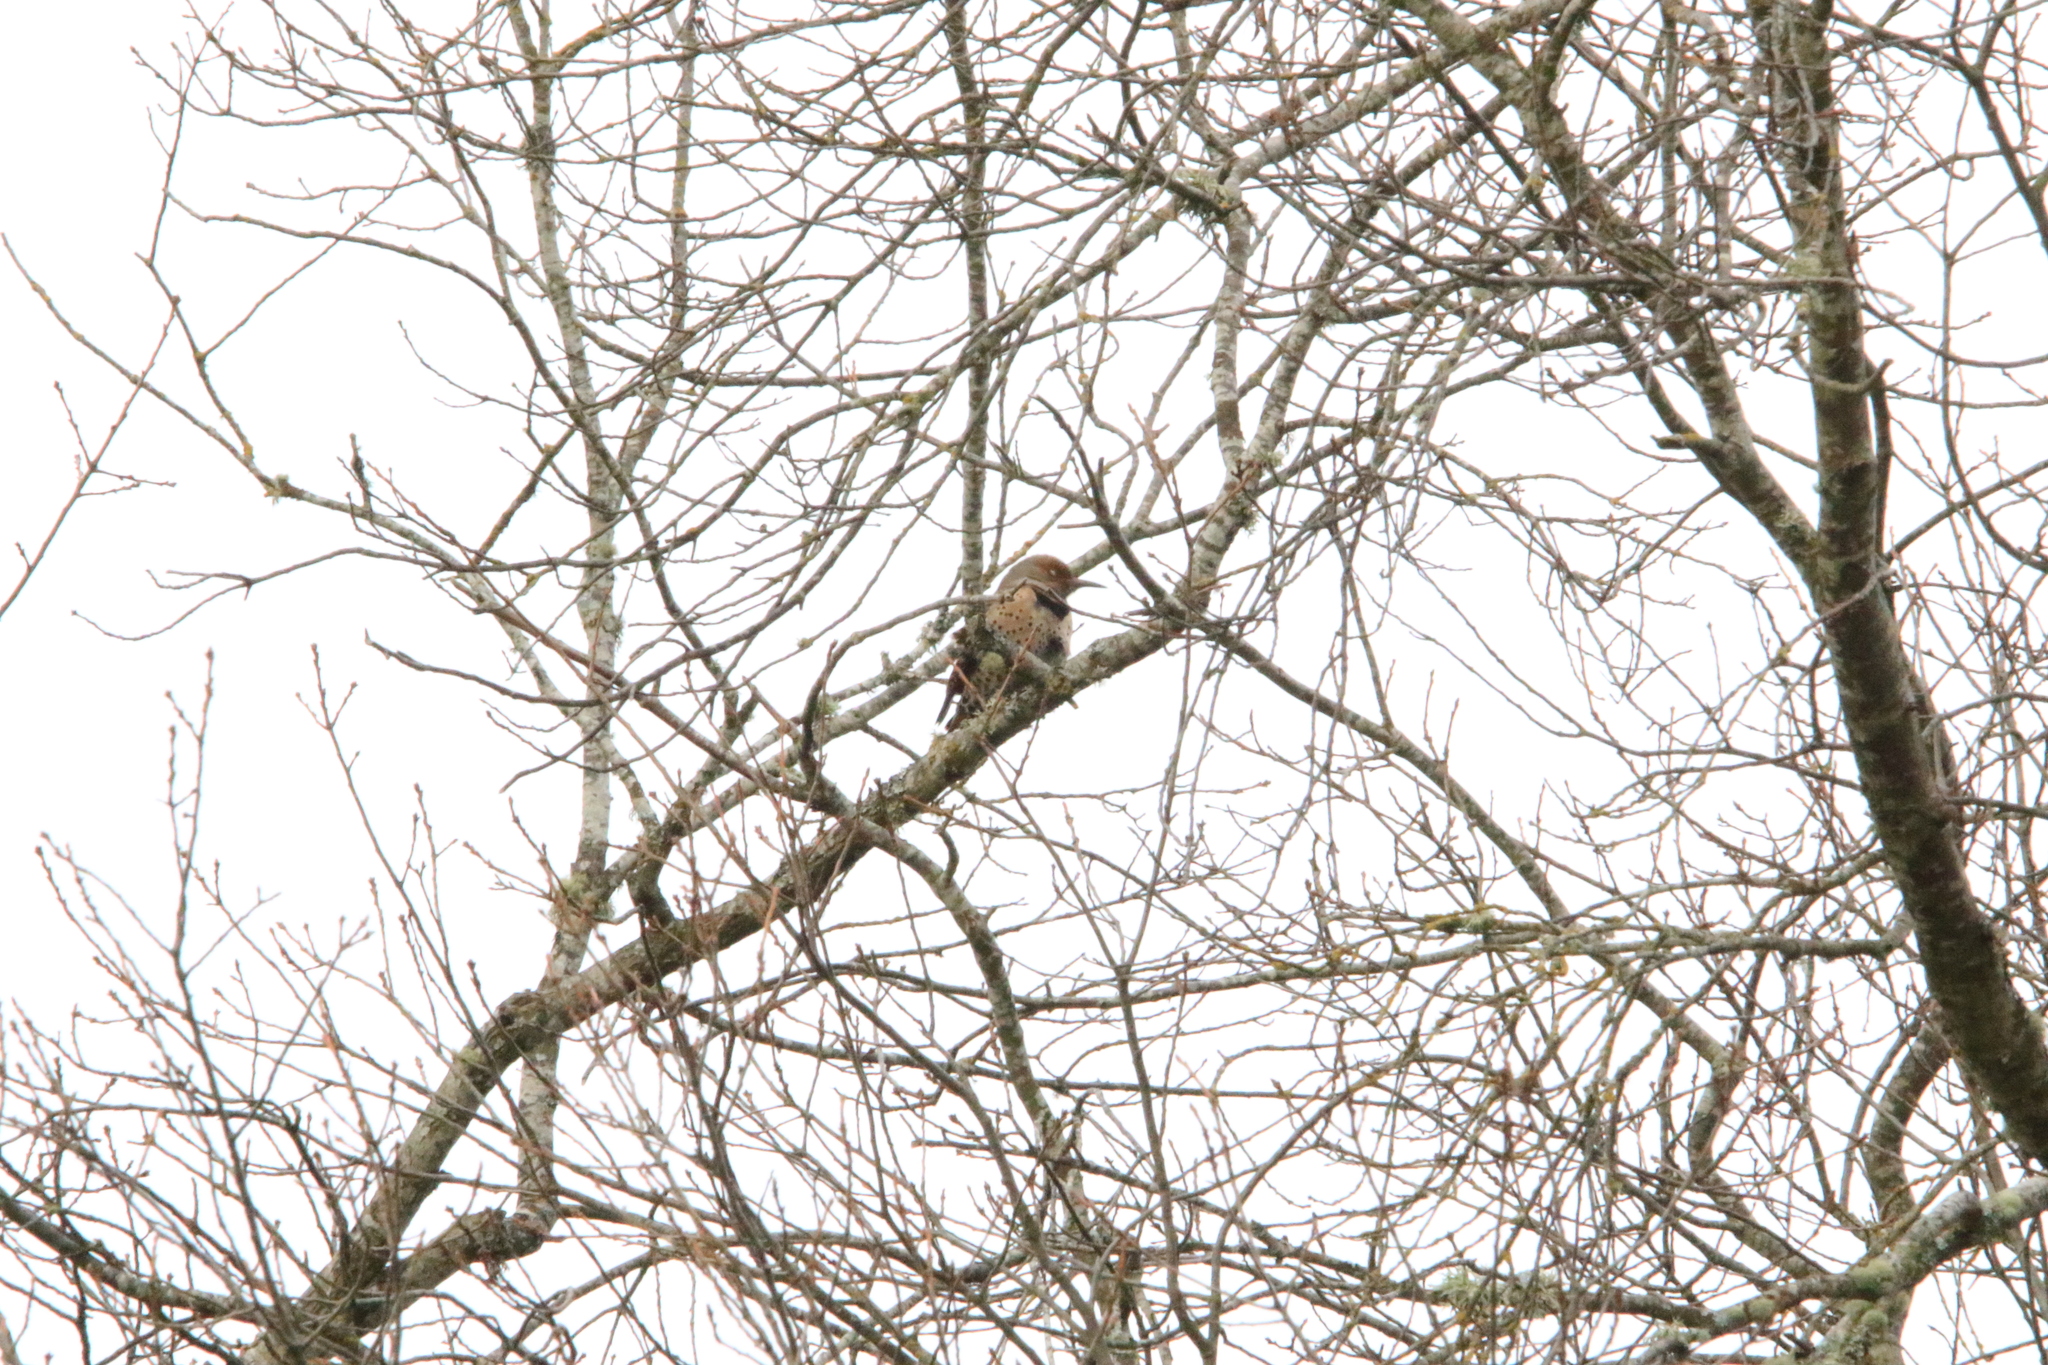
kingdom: Animalia
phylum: Chordata
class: Aves
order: Piciformes
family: Picidae
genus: Colaptes
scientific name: Colaptes auratus
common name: Northern flicker
